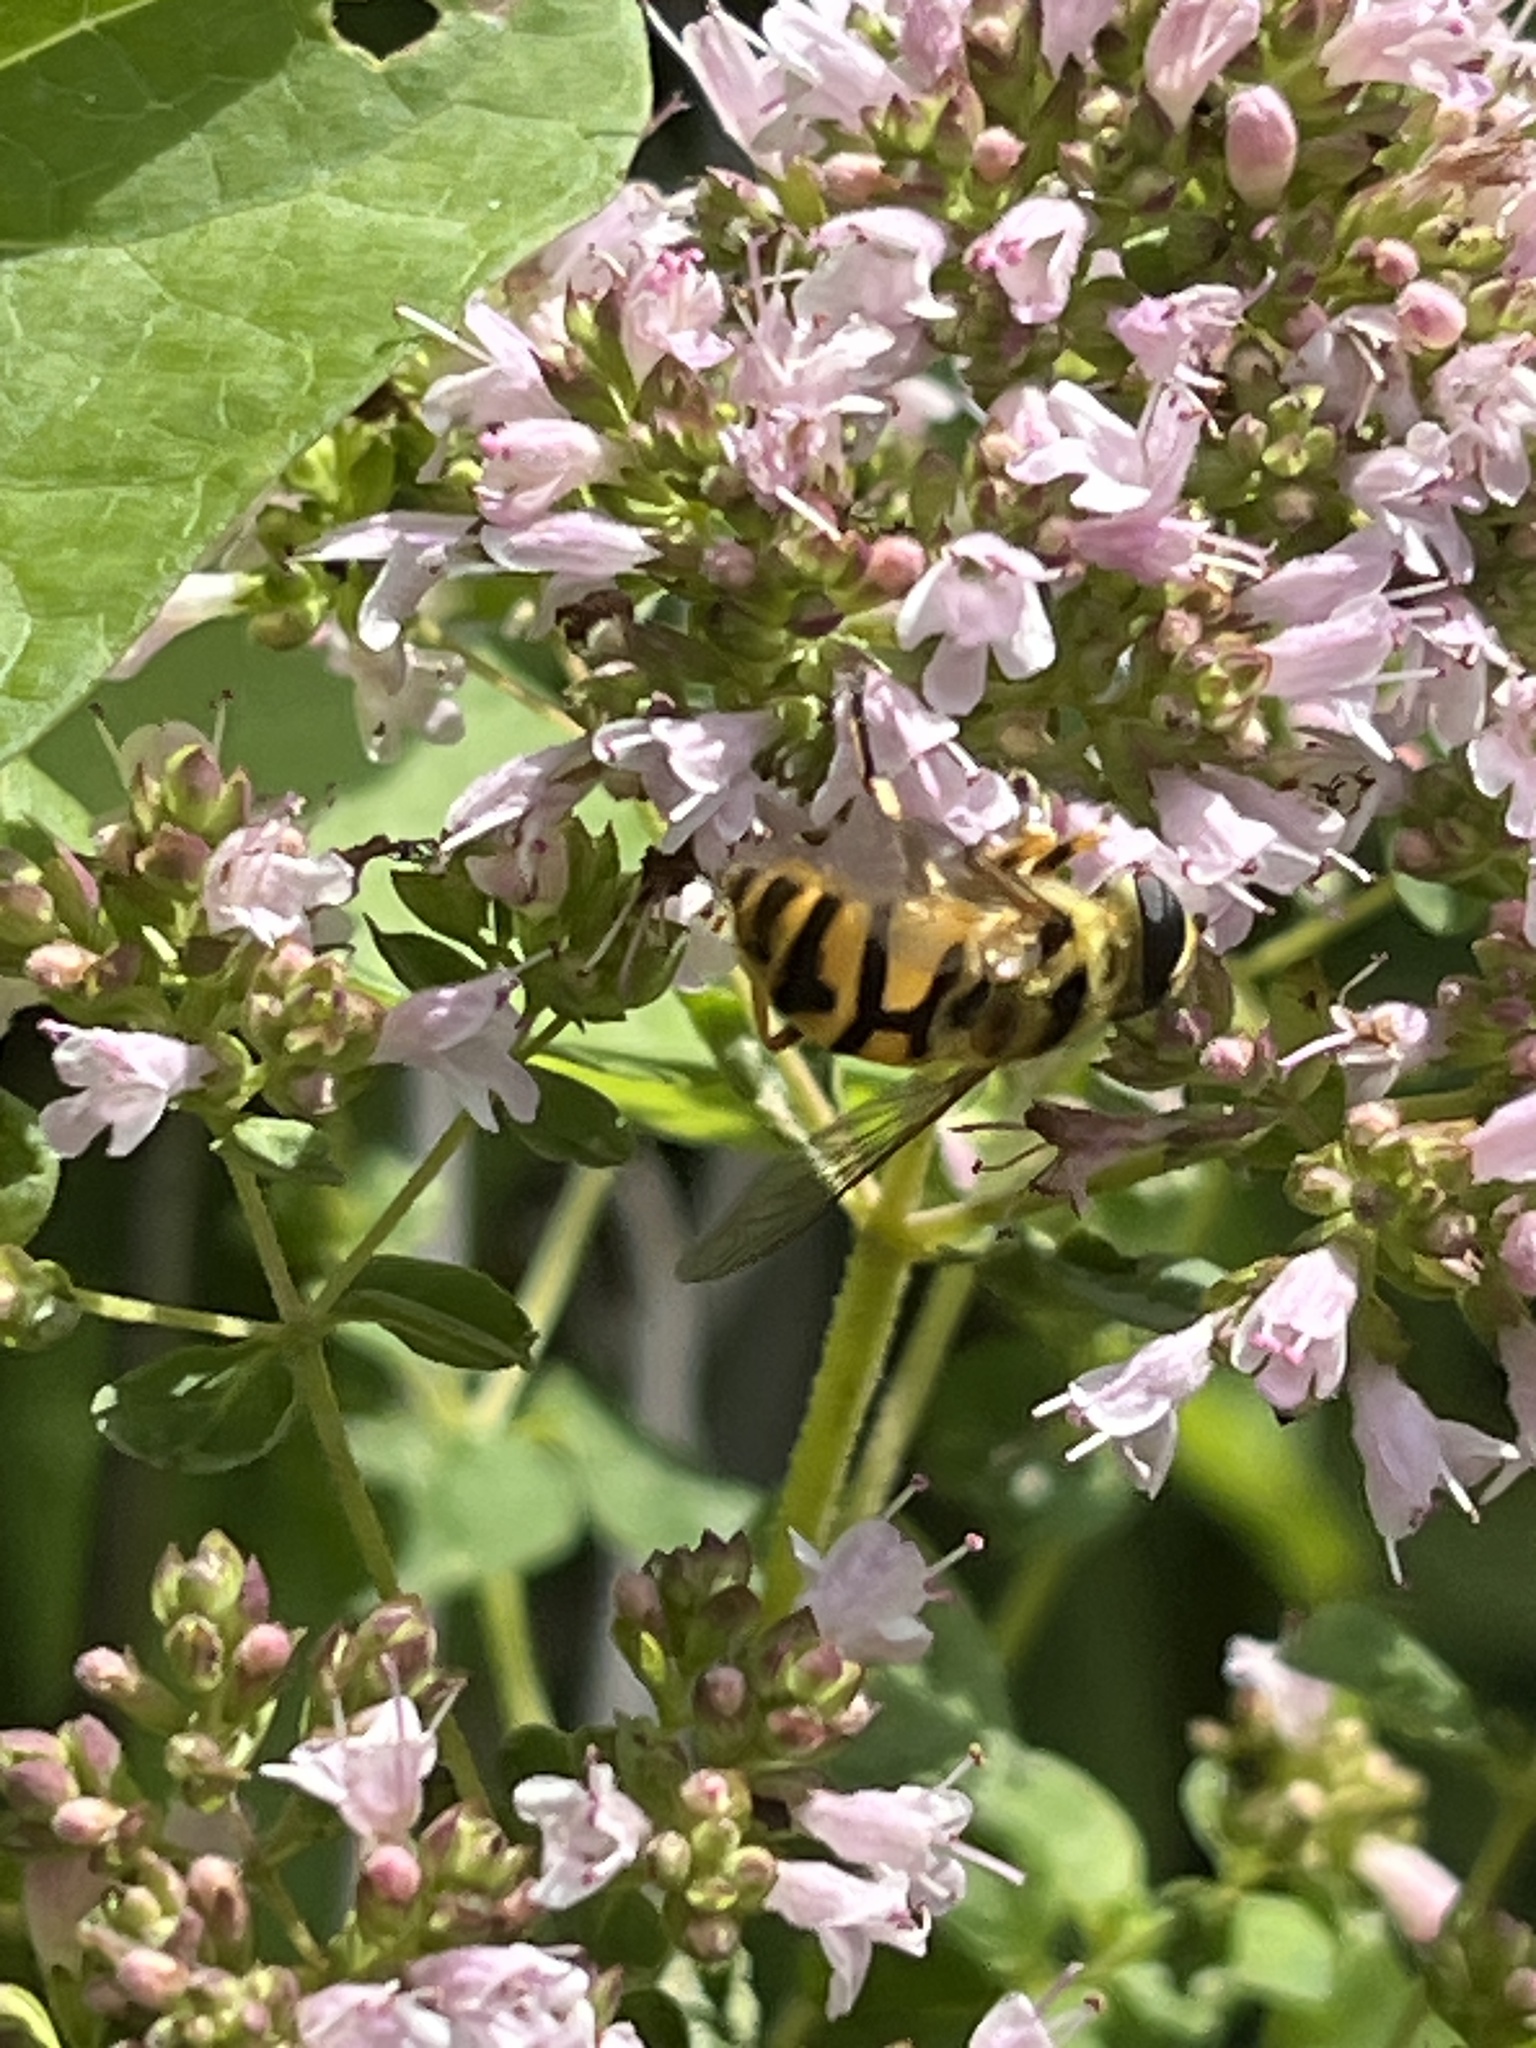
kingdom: Animalia
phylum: Arthropoda
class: Insecta
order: Diptera
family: Syrphidae
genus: Myathropa
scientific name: Myathropa florea
